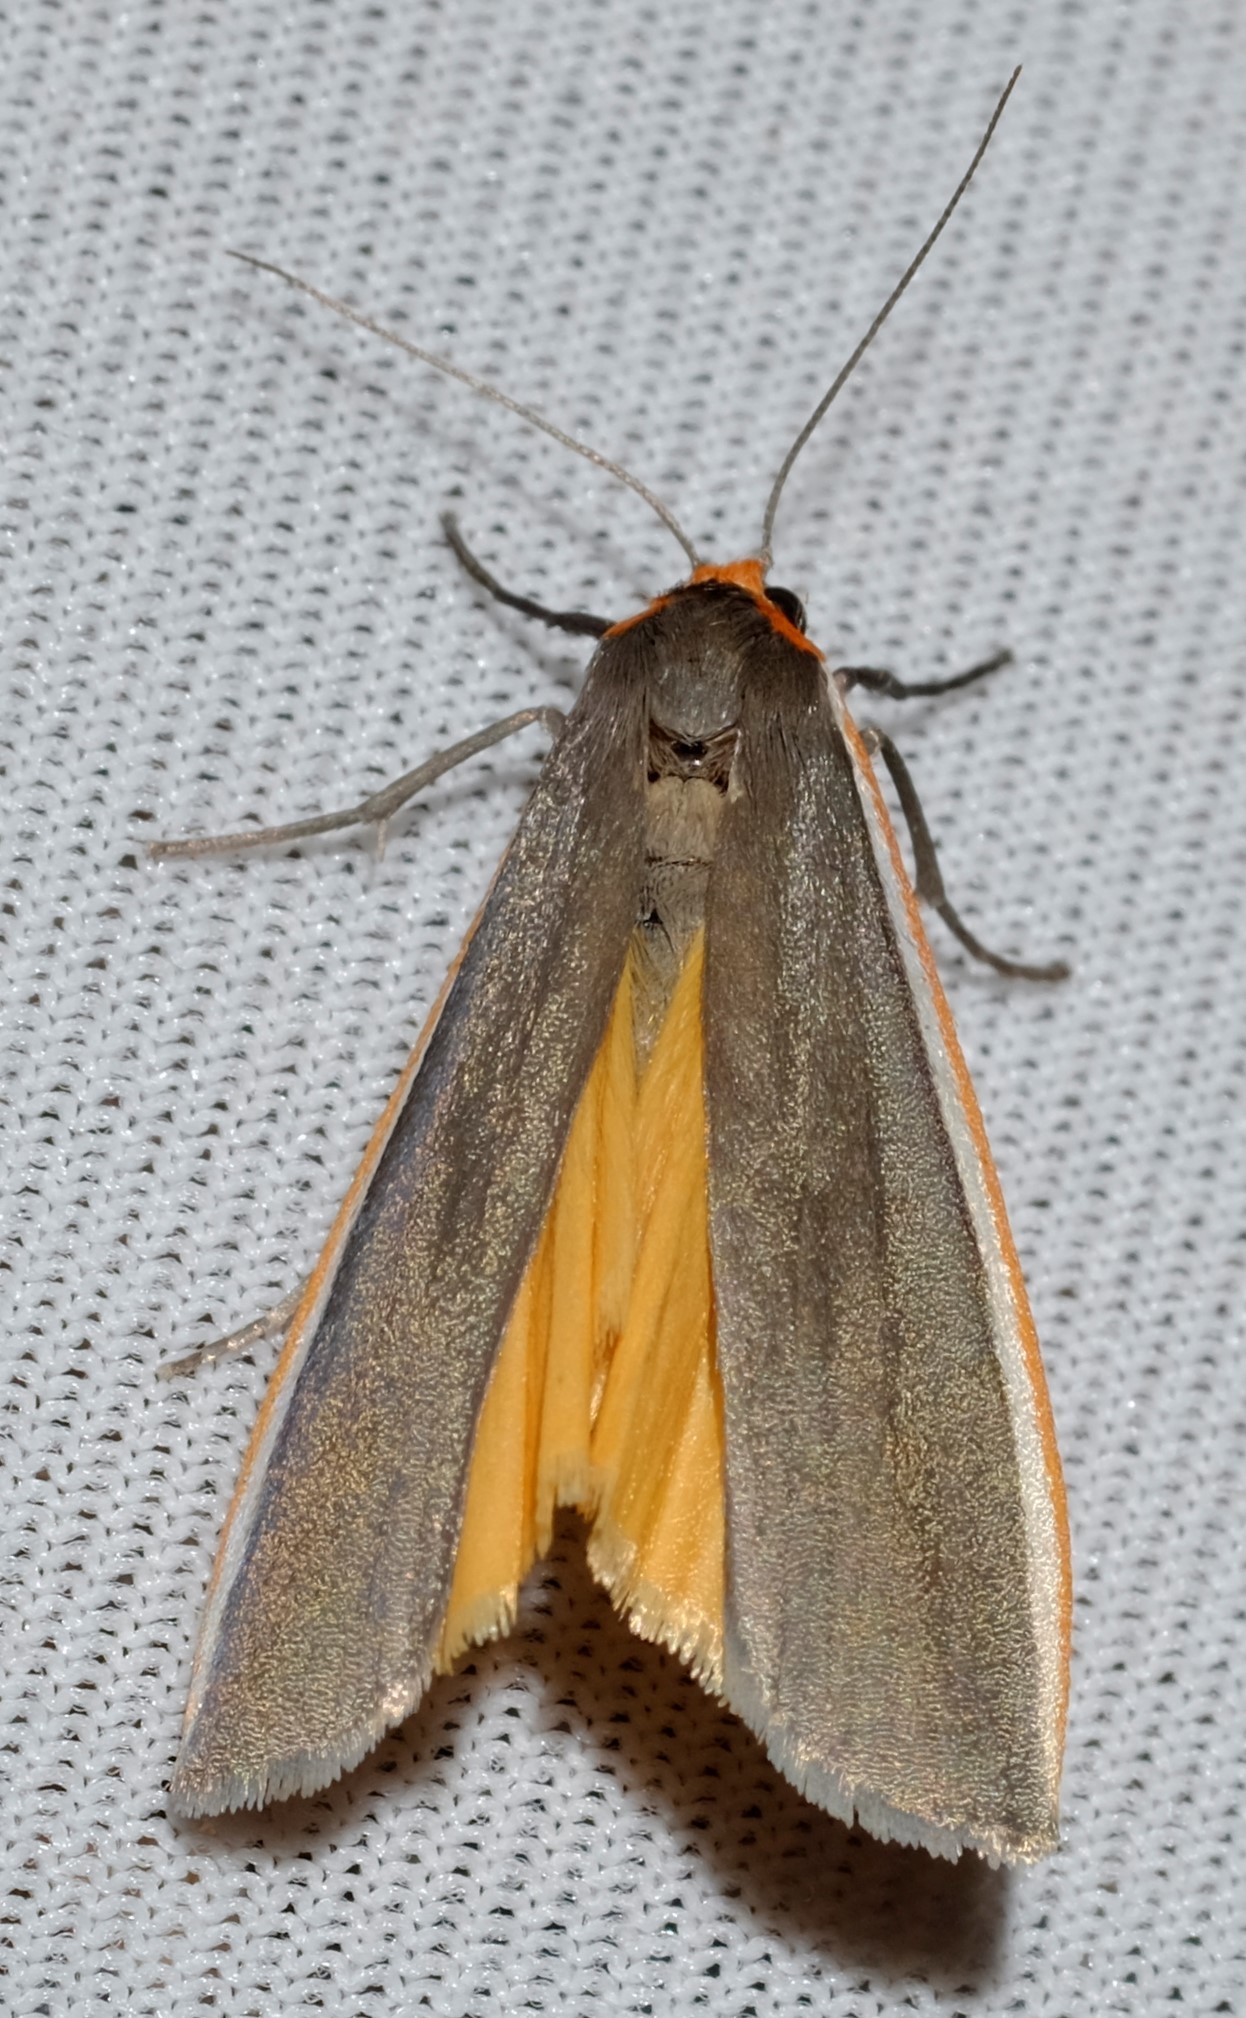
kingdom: Animalia
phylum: Arthropoda
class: Insecta
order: Lepidoptera
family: Erebidae
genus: Palaeosia
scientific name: Palaeosia bicosta
